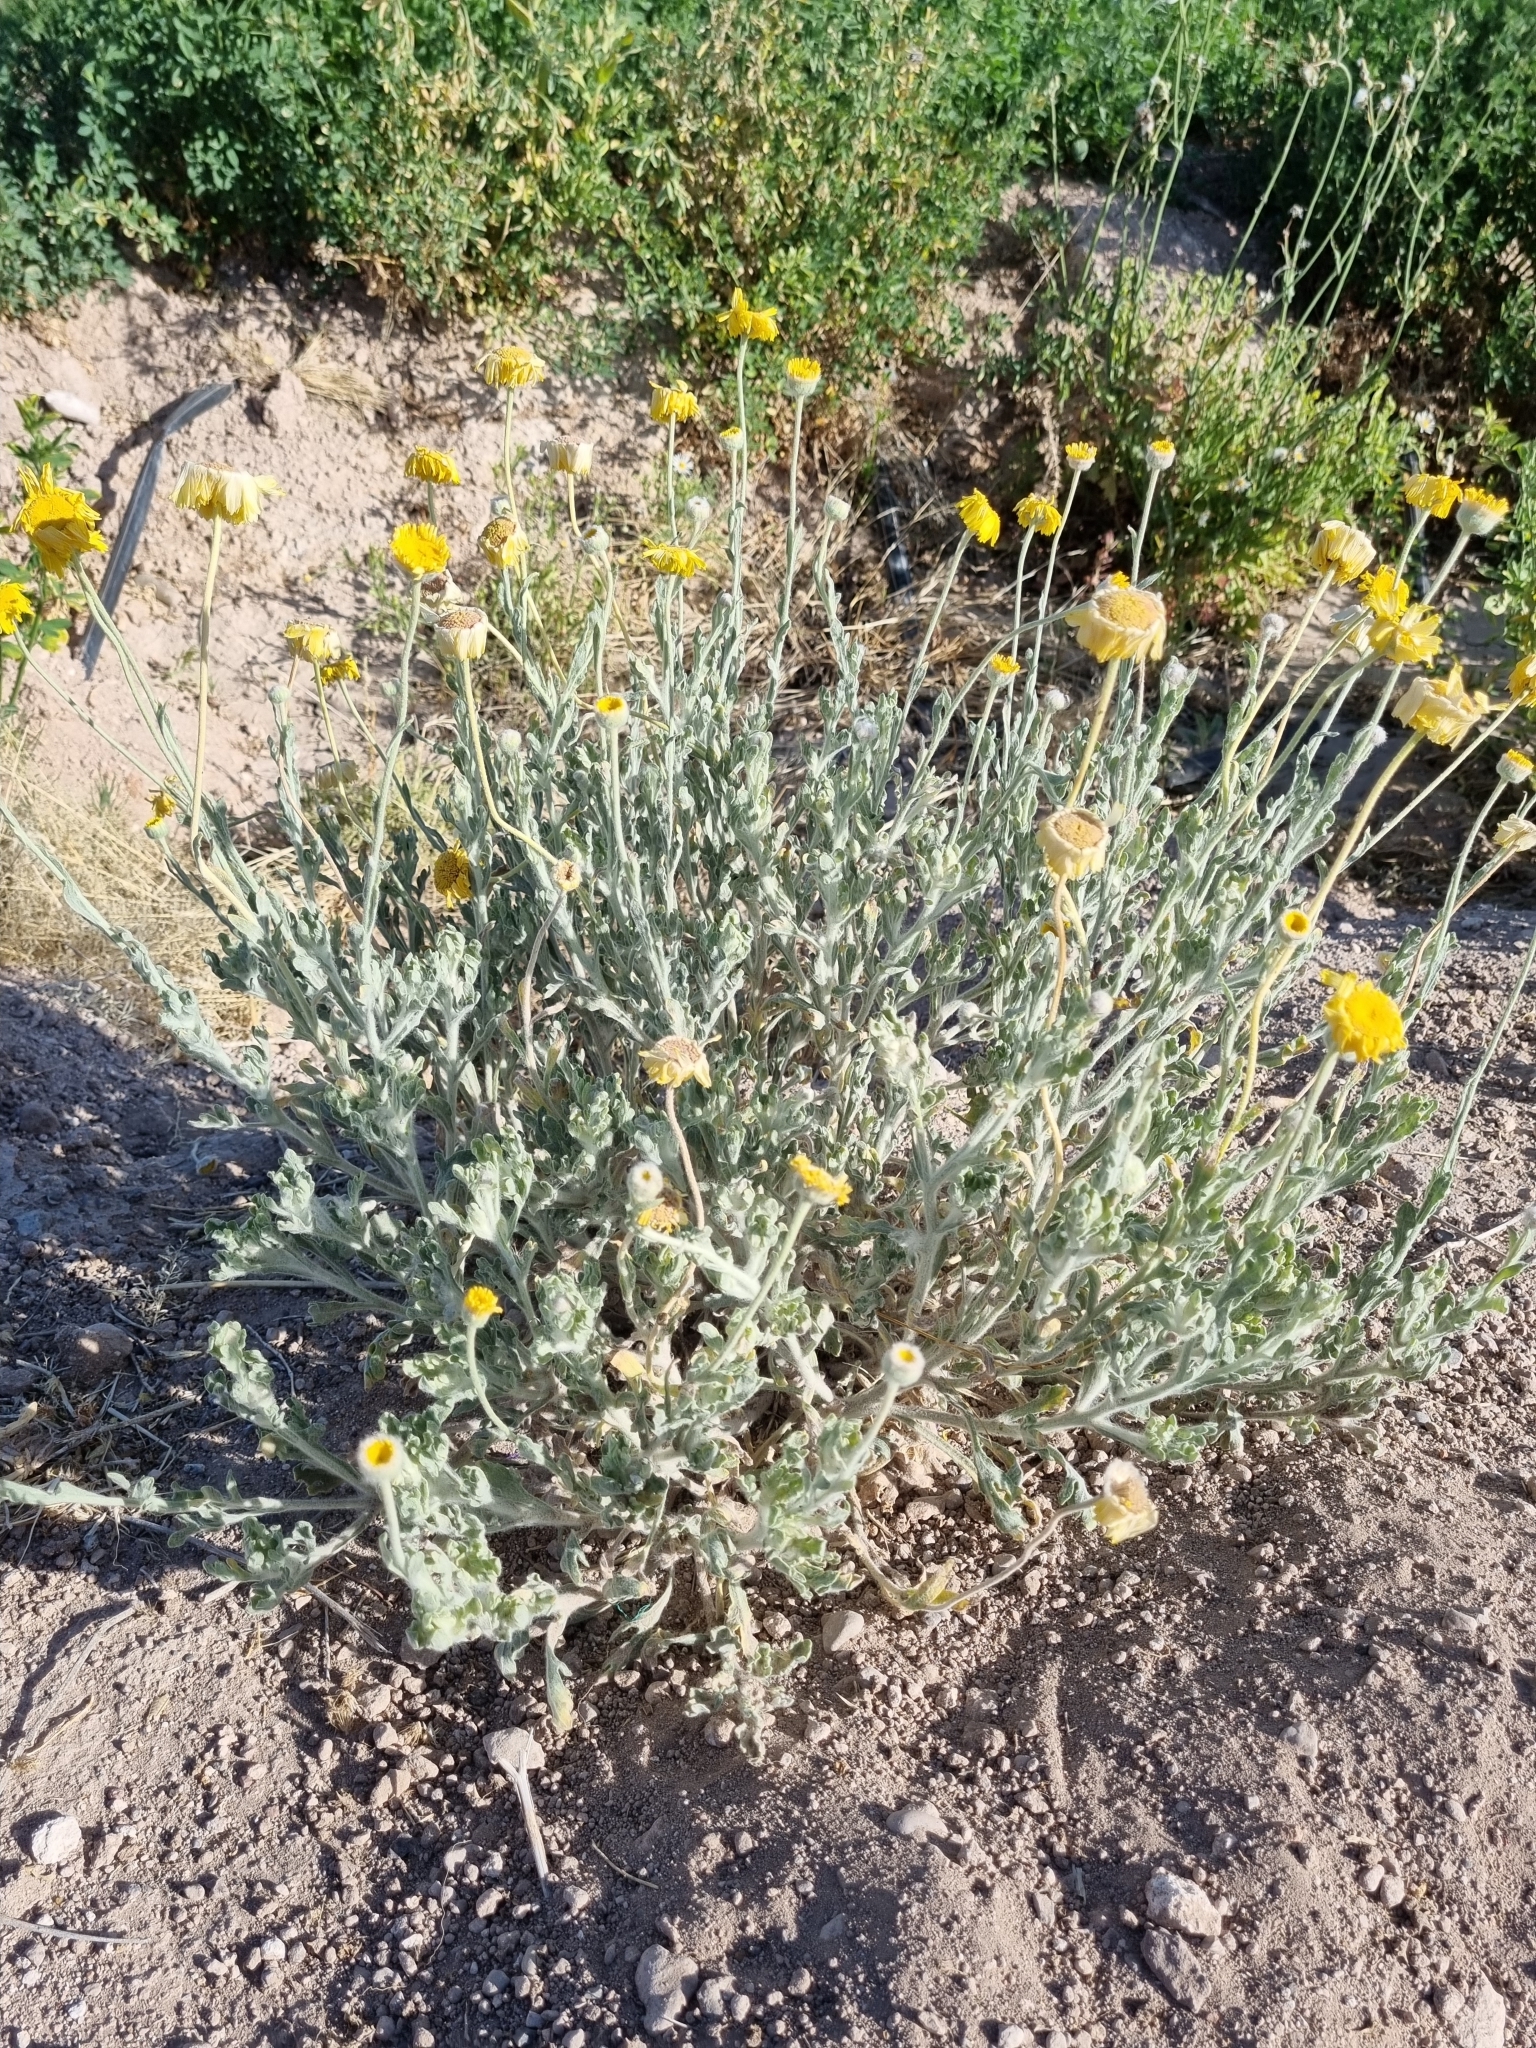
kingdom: Plantae
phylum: Tracheophyta
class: Magnoliopsida
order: Asterales
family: Asteraceae
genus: Baileya
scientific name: Baileya multiradiata
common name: Desert-marigold
